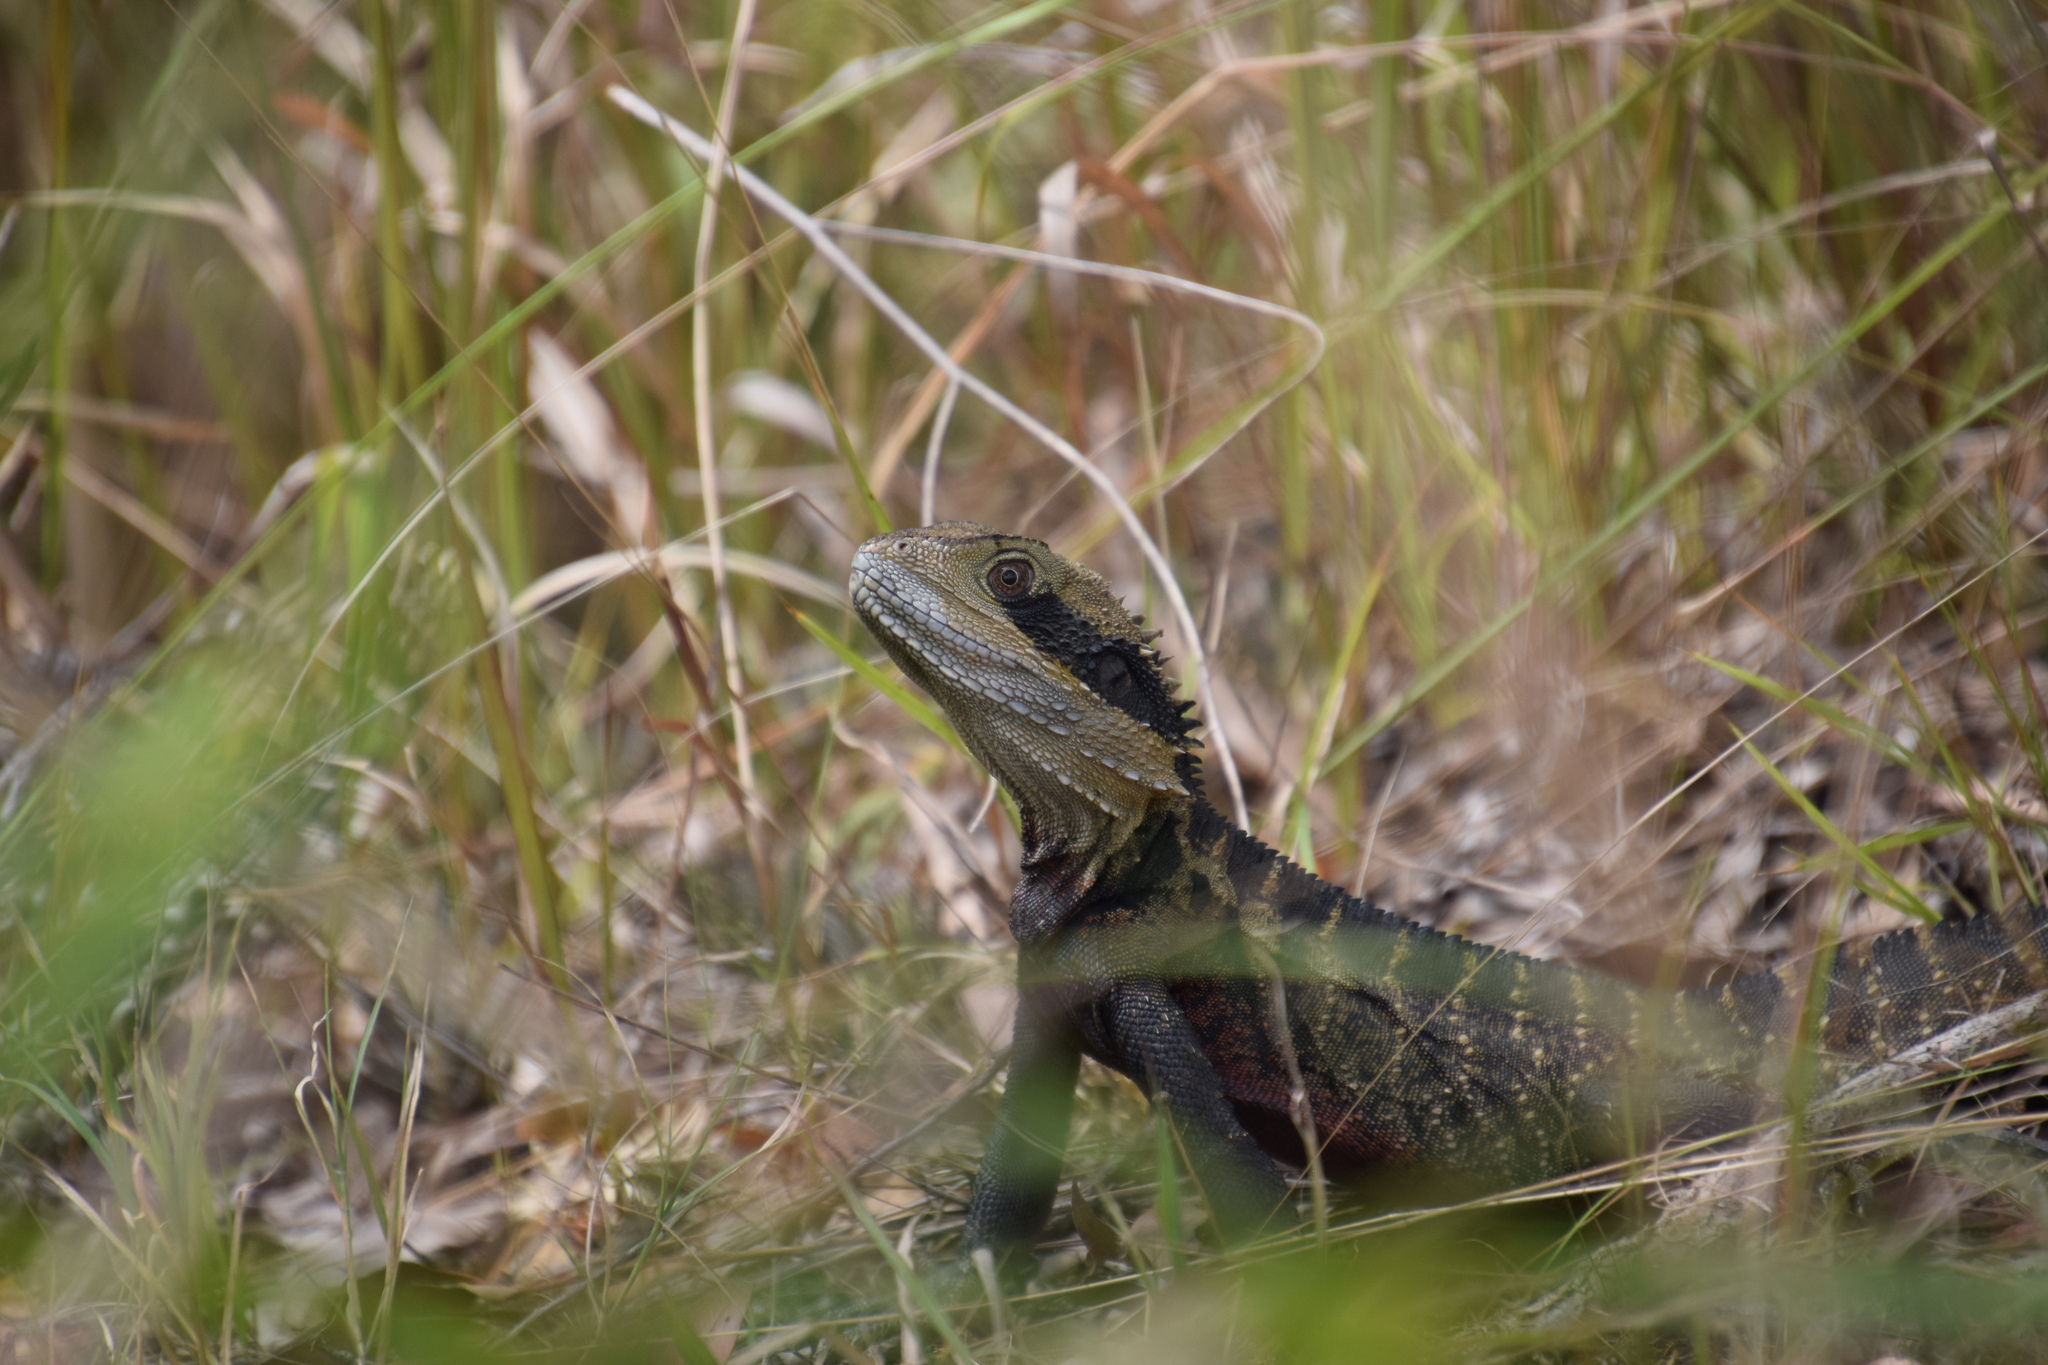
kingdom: Animalia
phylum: Chordata
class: Squamata
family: Agamidae
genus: Intellagama
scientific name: Intellagama lesueurii
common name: Eastern water dragon
